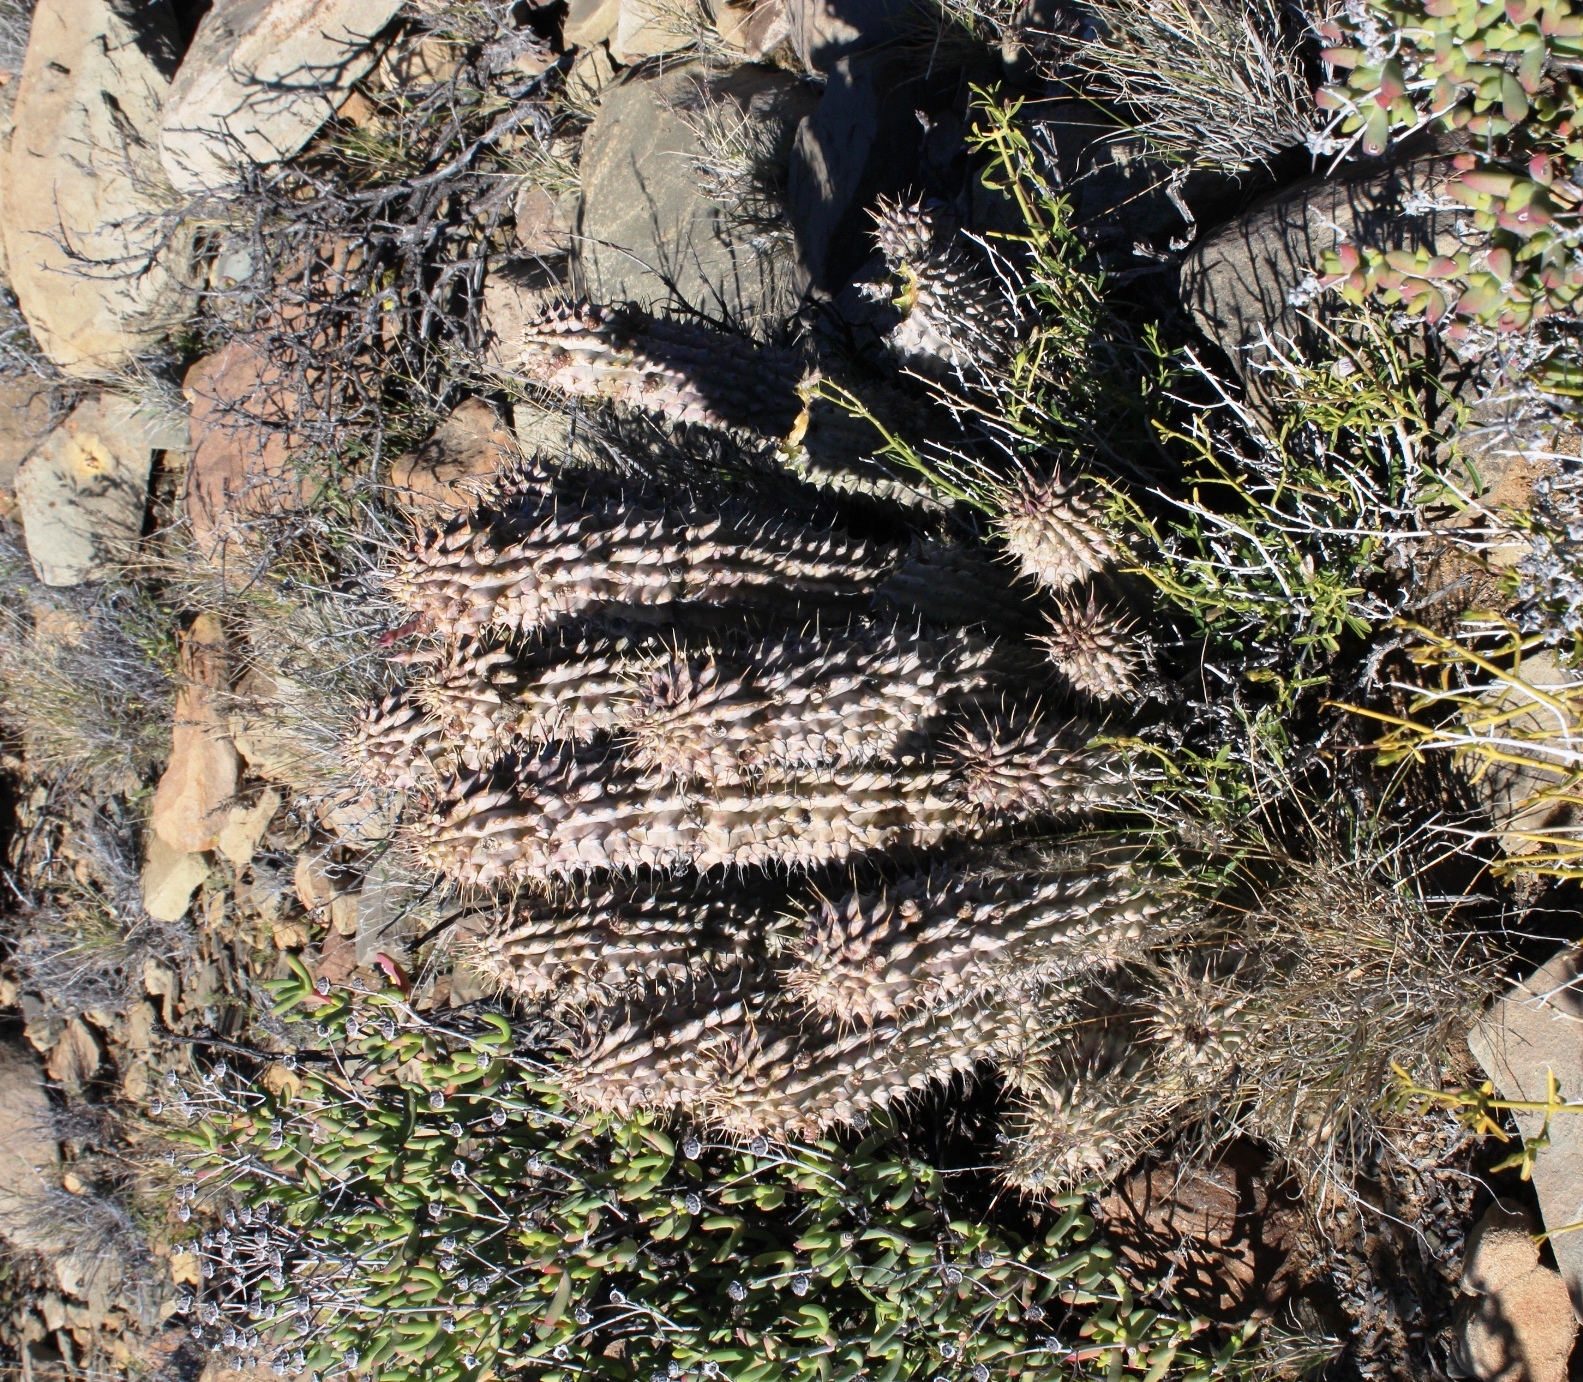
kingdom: Plantae
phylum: Tracheophyta
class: Magnoliopsida
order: Gentianales
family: Apocynaceae
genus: Hoodia
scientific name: Hoodia gordonii
